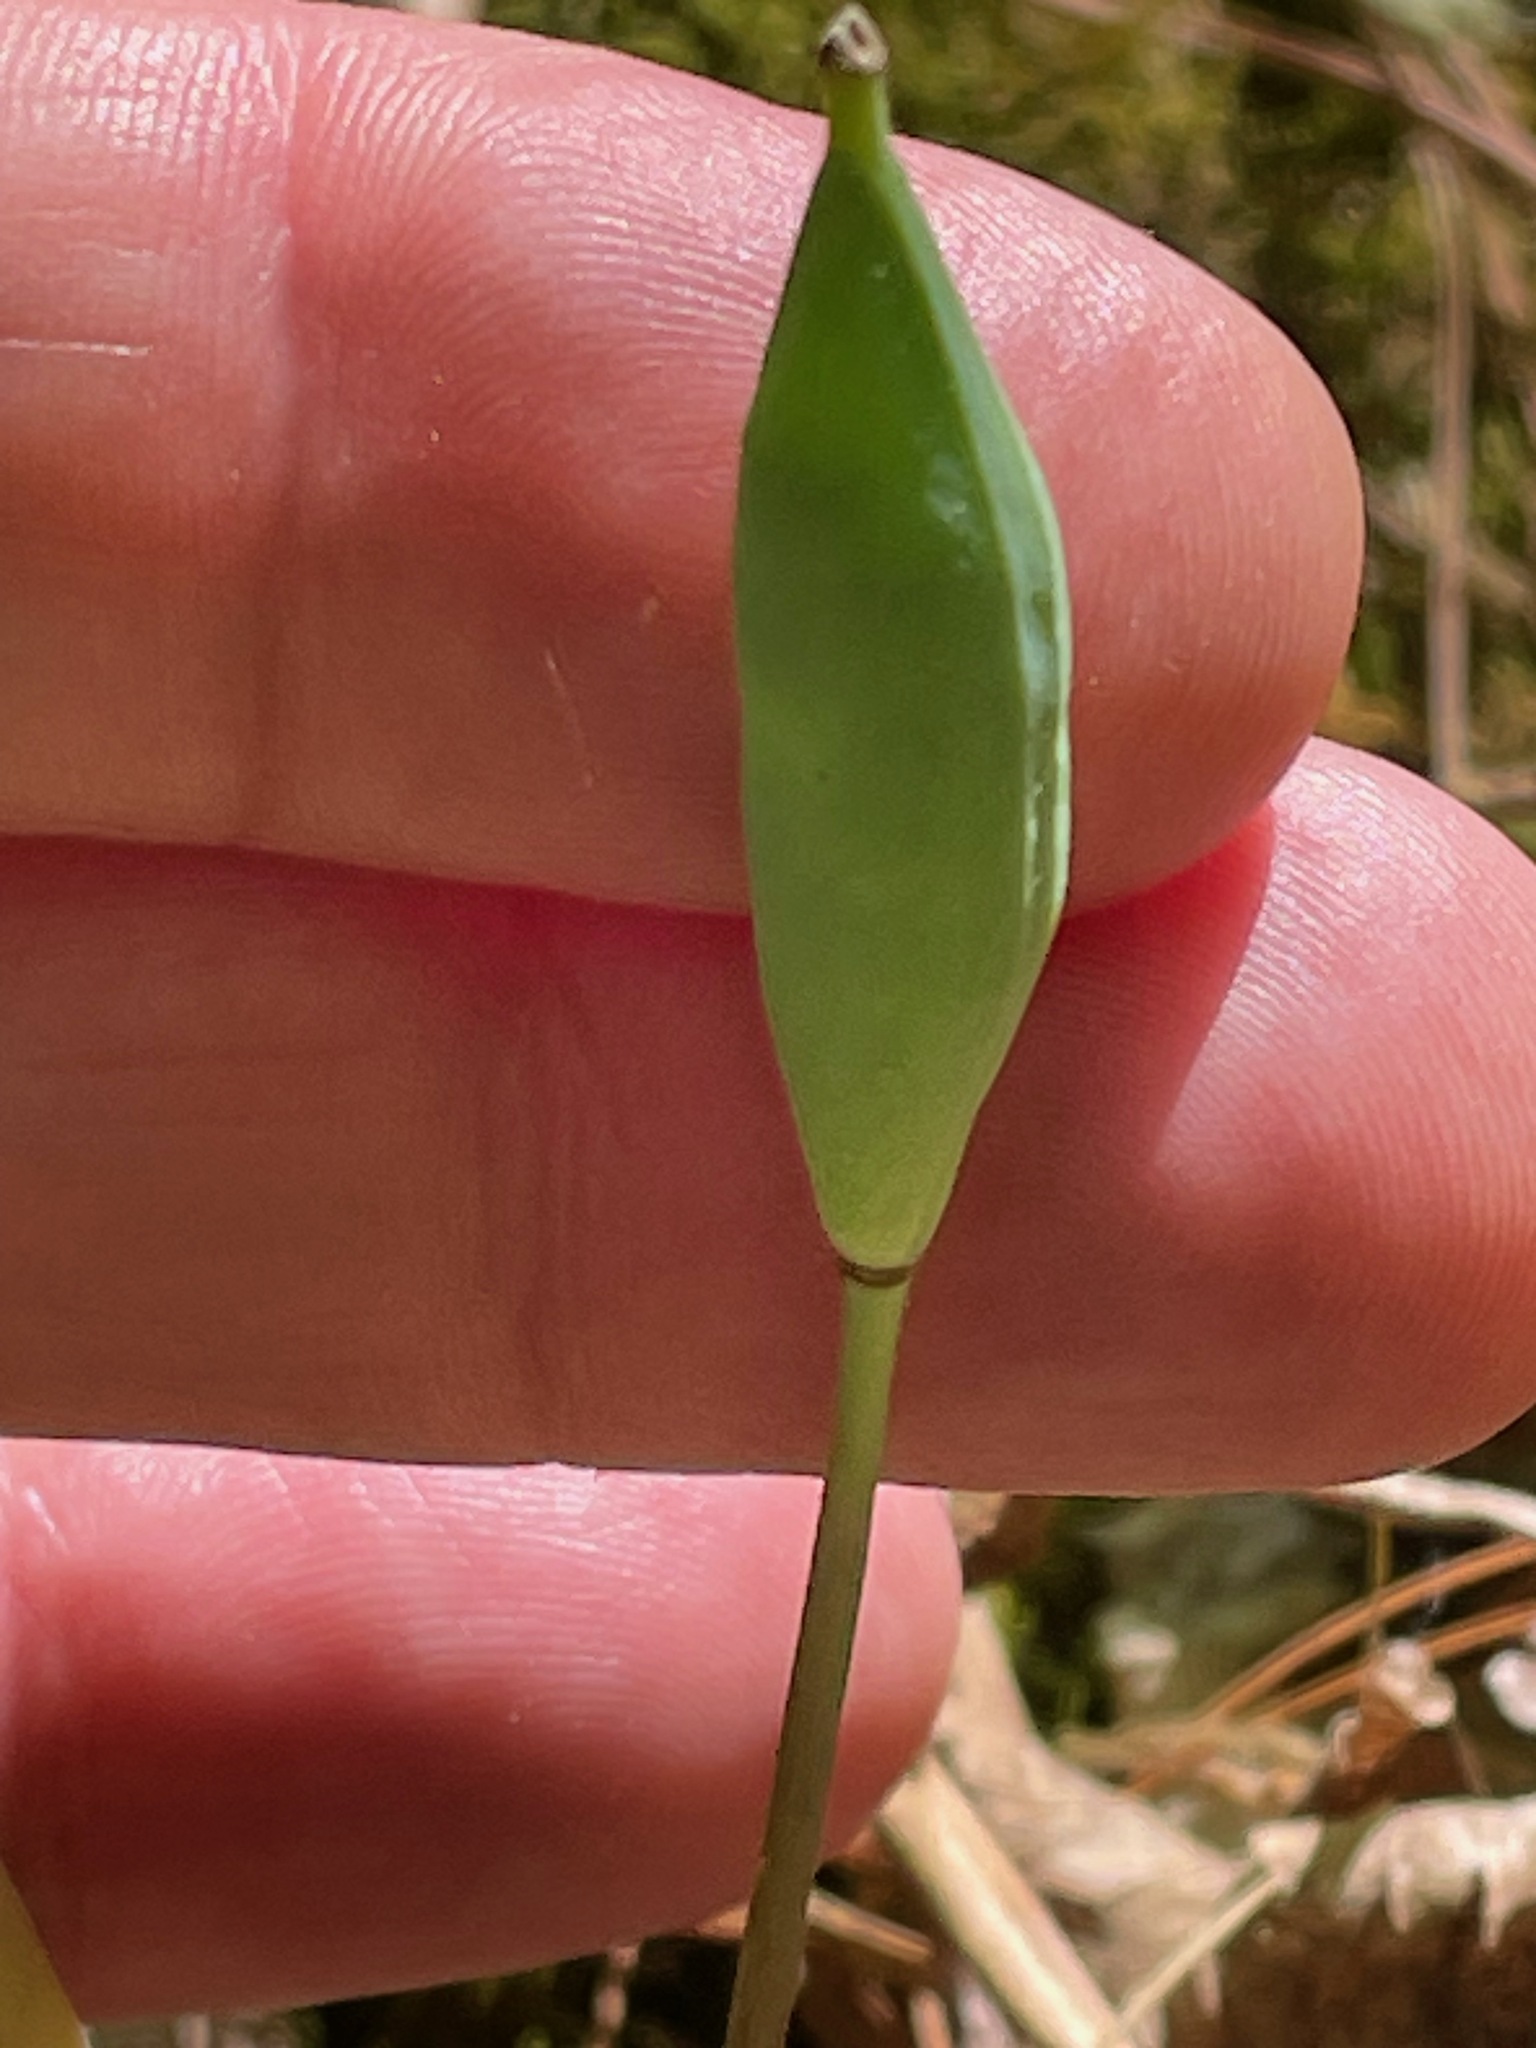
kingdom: Plantae
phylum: Tracheophyta
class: Magnoliopsida
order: Ranunculales
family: Papaveraceae
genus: Sanguinaria
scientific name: Sanguinaria canadensis
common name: Bloodroot
